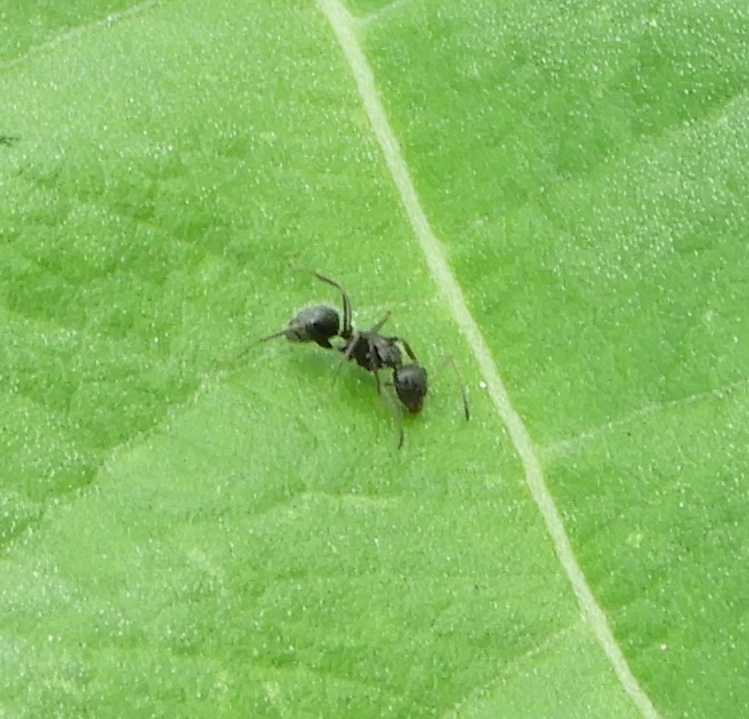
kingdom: Animalia
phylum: Arthropoda
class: Insecta
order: Hymenoptera
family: Formicidae
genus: Camponotus
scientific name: Camponotus
